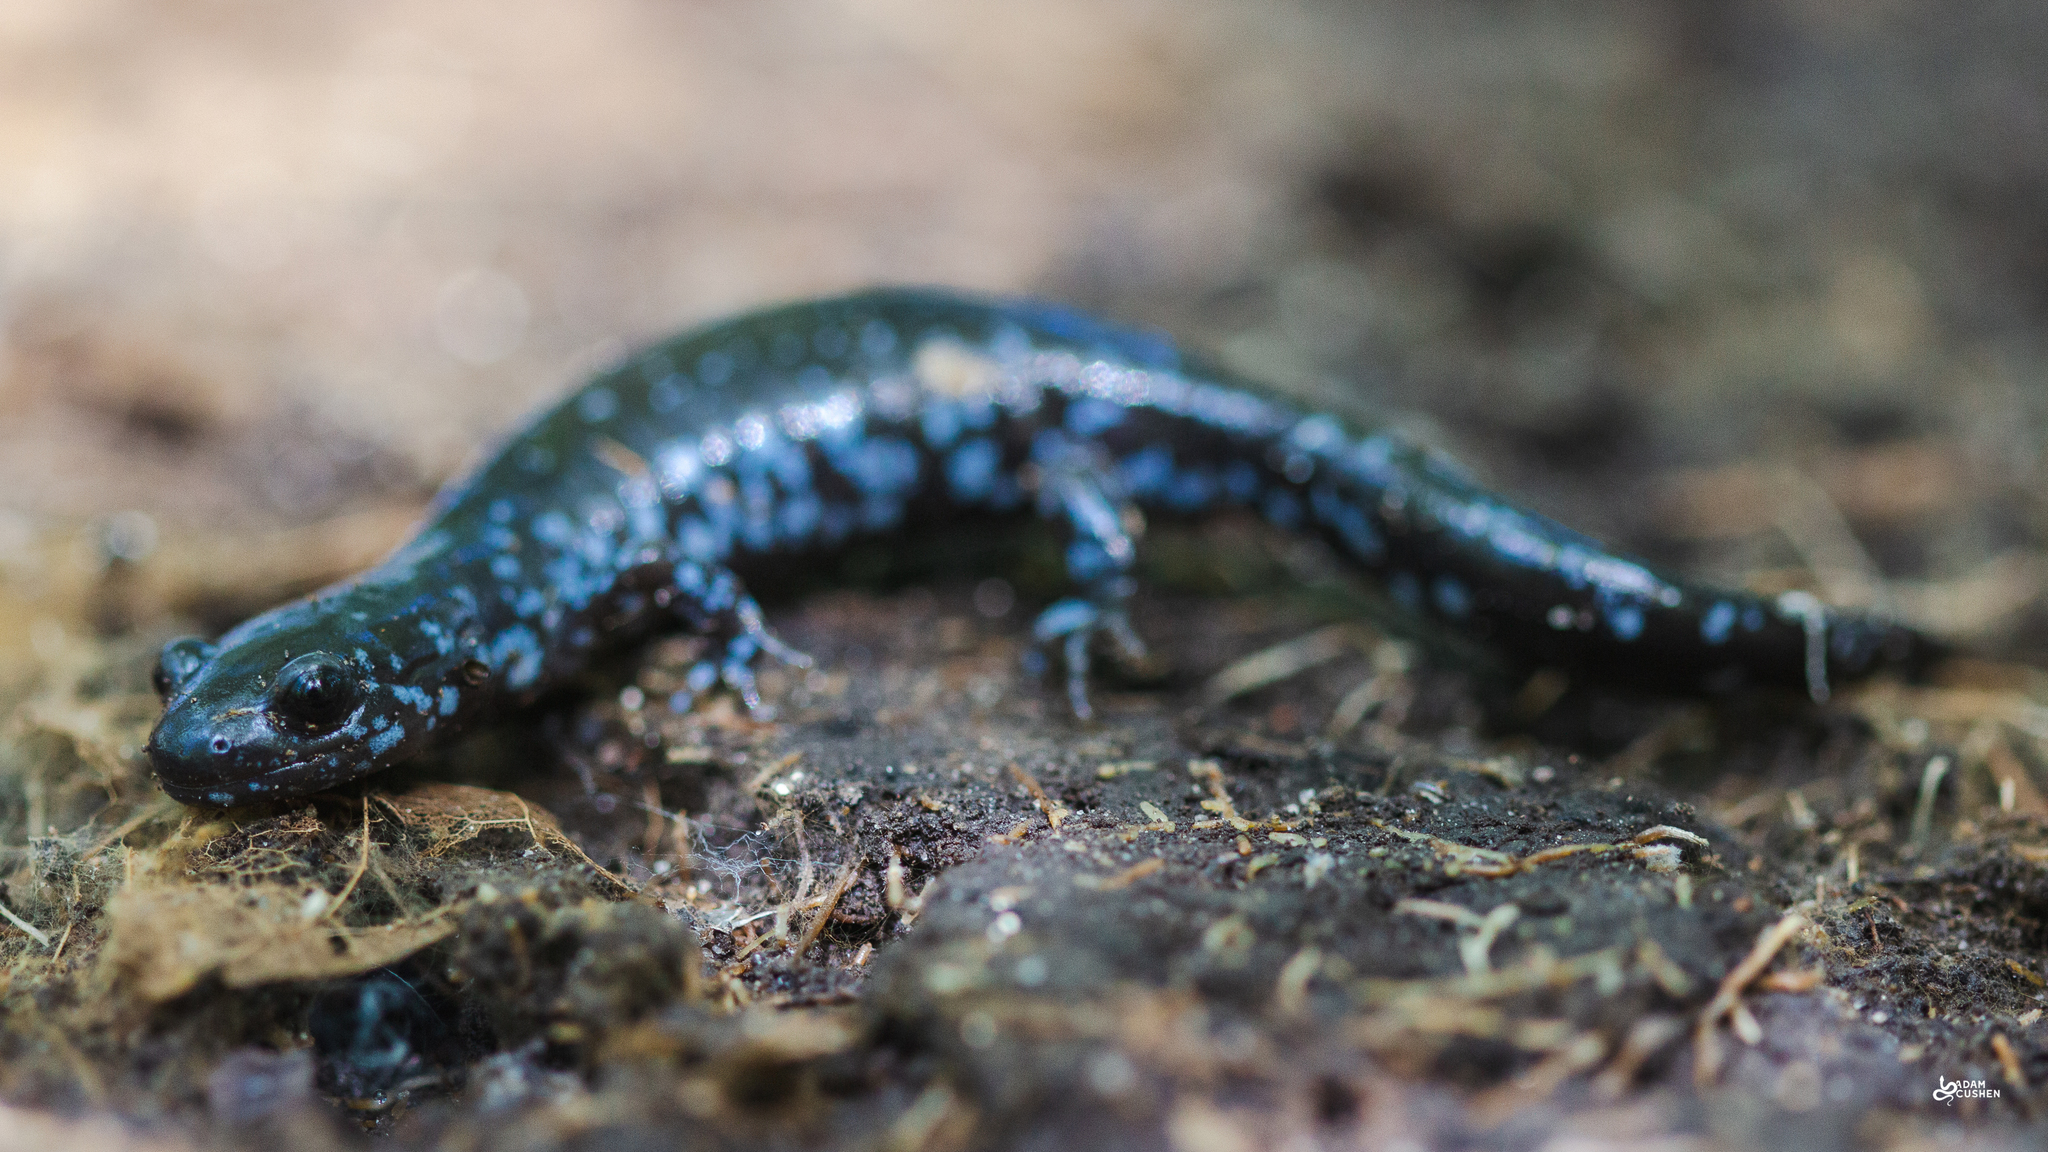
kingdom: Animalia
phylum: Chordata
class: Amphibia
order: Caudata
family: Ambystomatidae
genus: Ambystoma
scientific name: Ambystoma laterale
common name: Blue-spotted salamander
